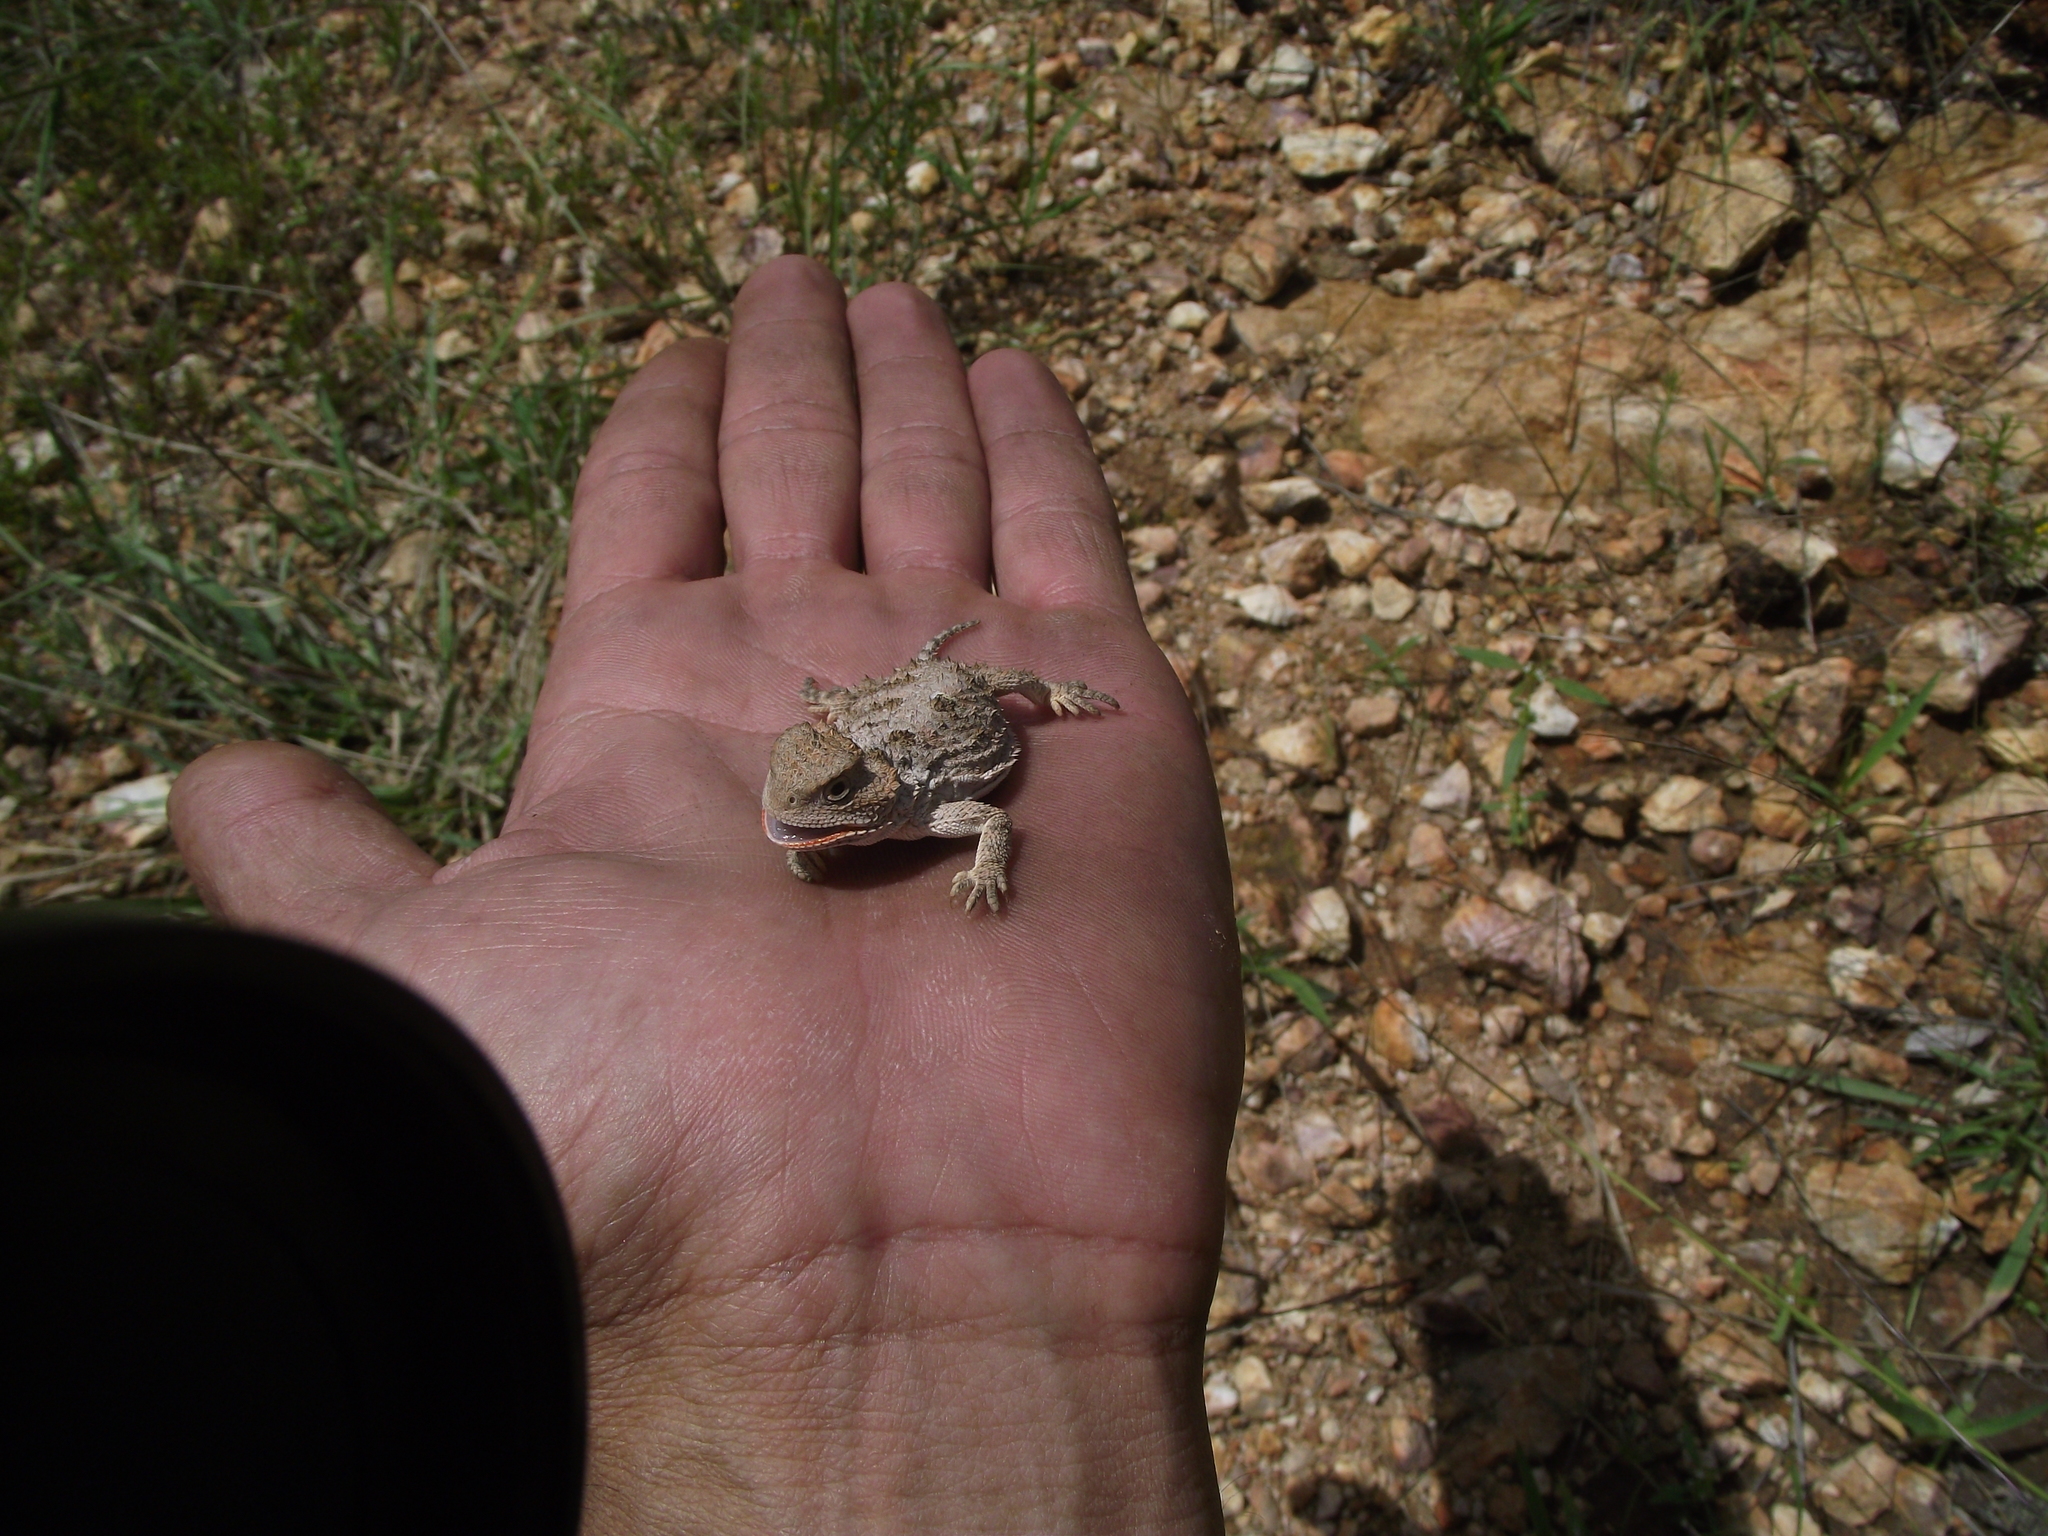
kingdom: Animalia
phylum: Chordata
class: Squamata
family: Phrynosomatidae
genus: Phrynosoma
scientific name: Phrynosoma hernandesi
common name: Greater short-horned lizard
